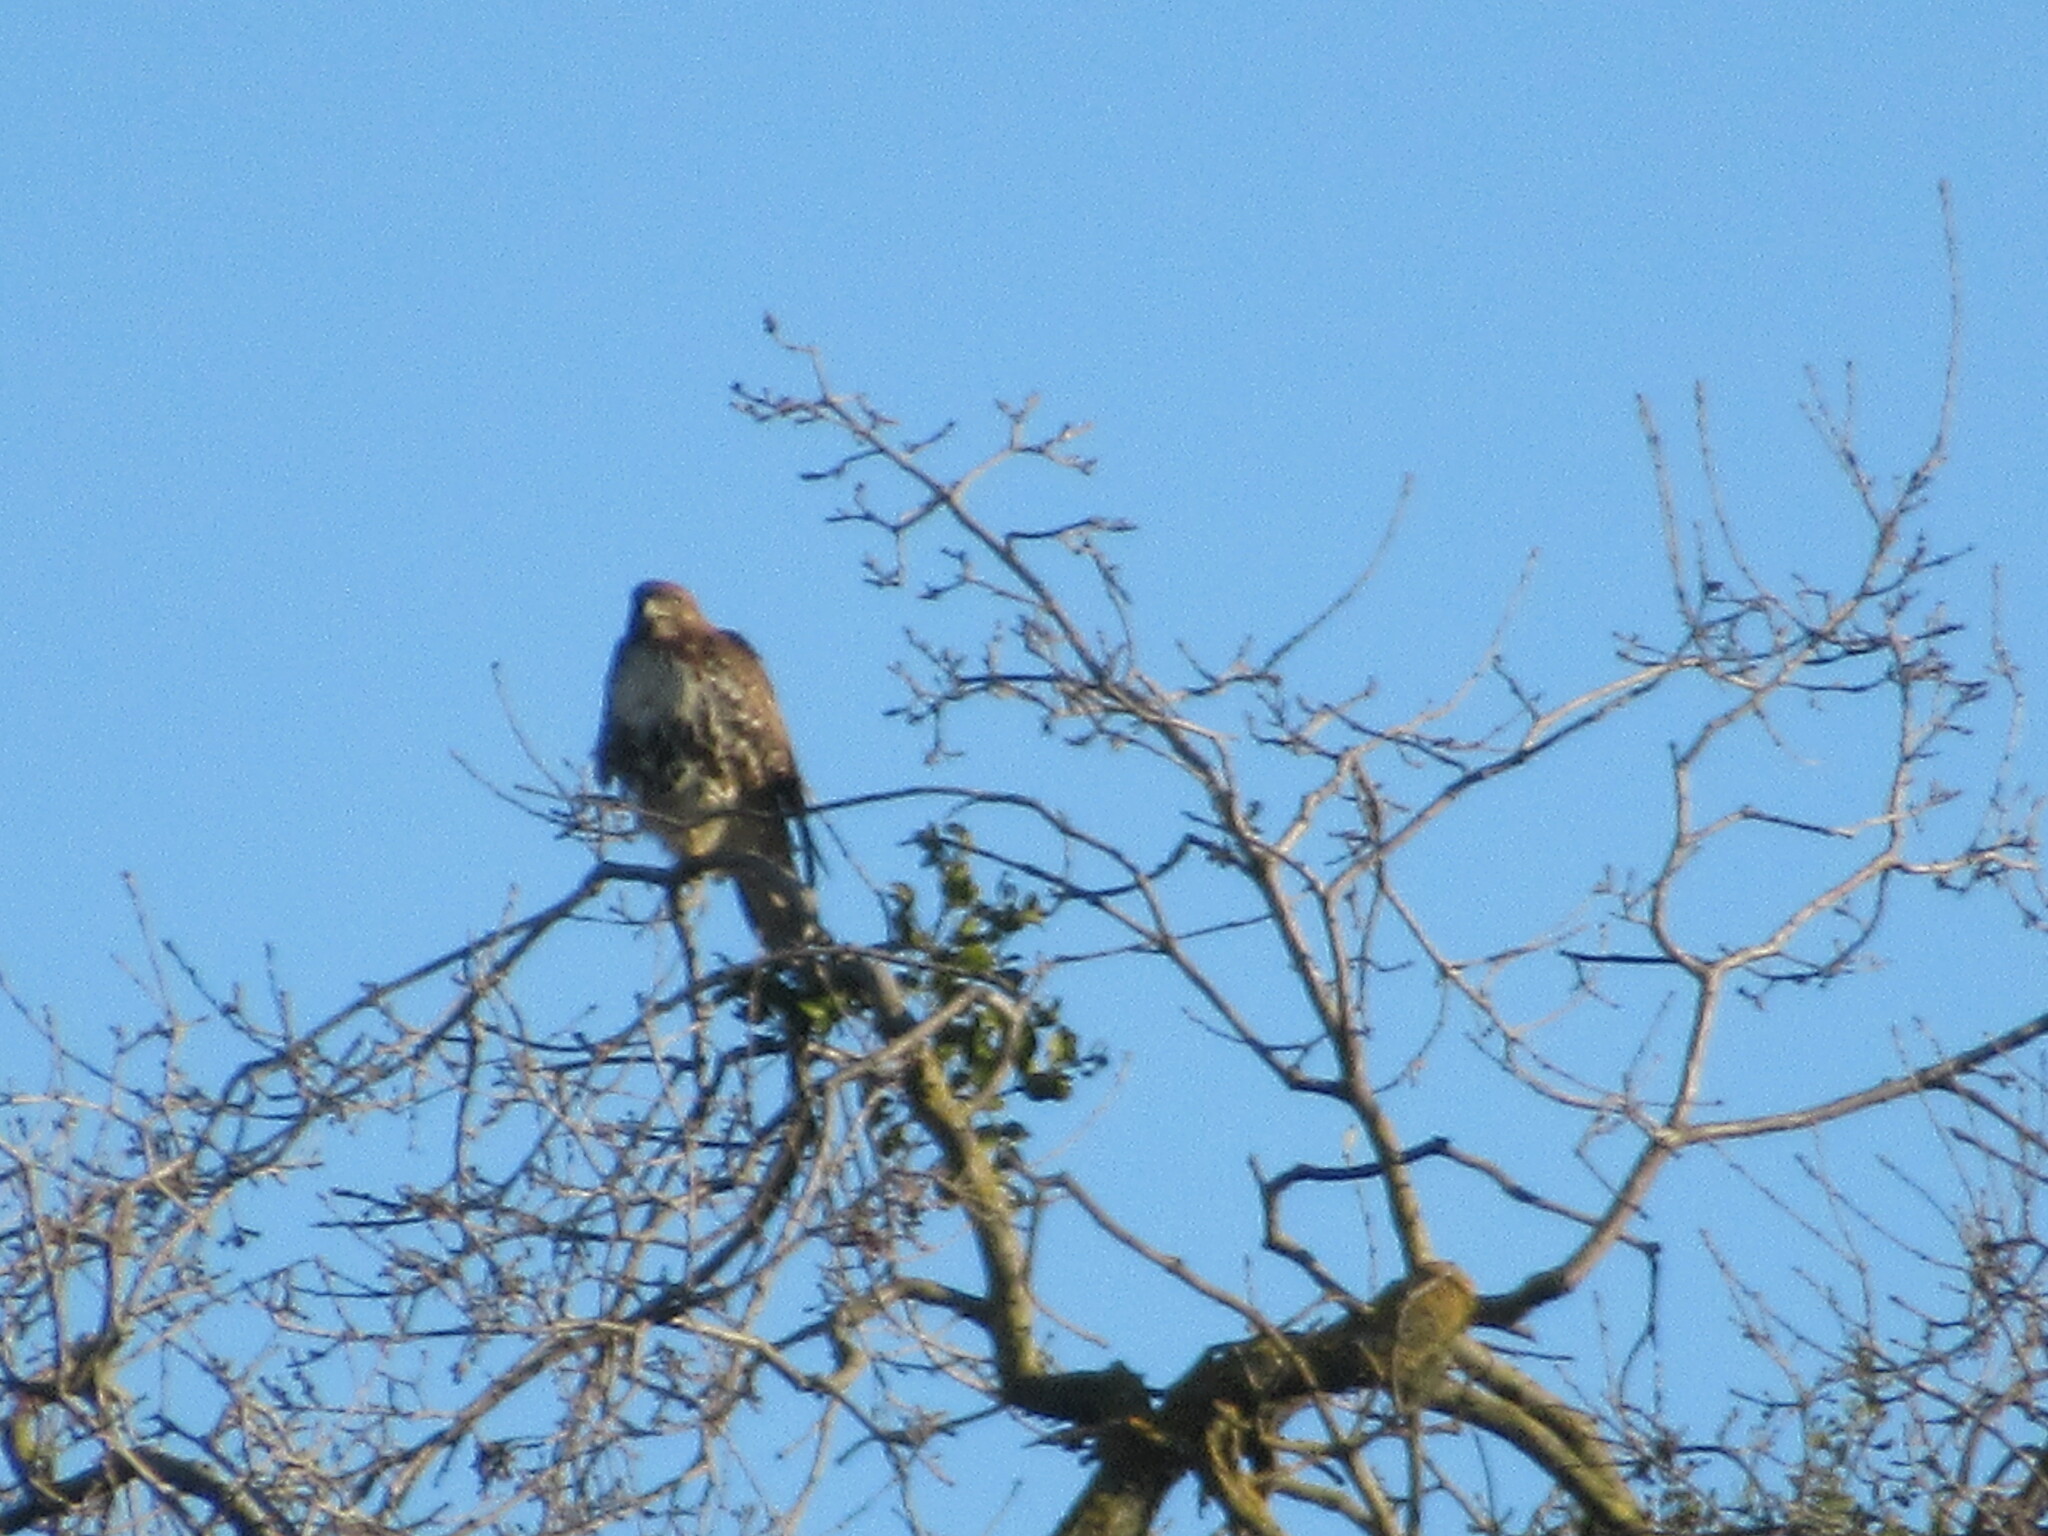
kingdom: Animalia
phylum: Chordata
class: Aves
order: Accipitriformes
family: Accipitridae
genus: Buteo
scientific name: Buteo jamaicensis
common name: Red-tailed hawk
